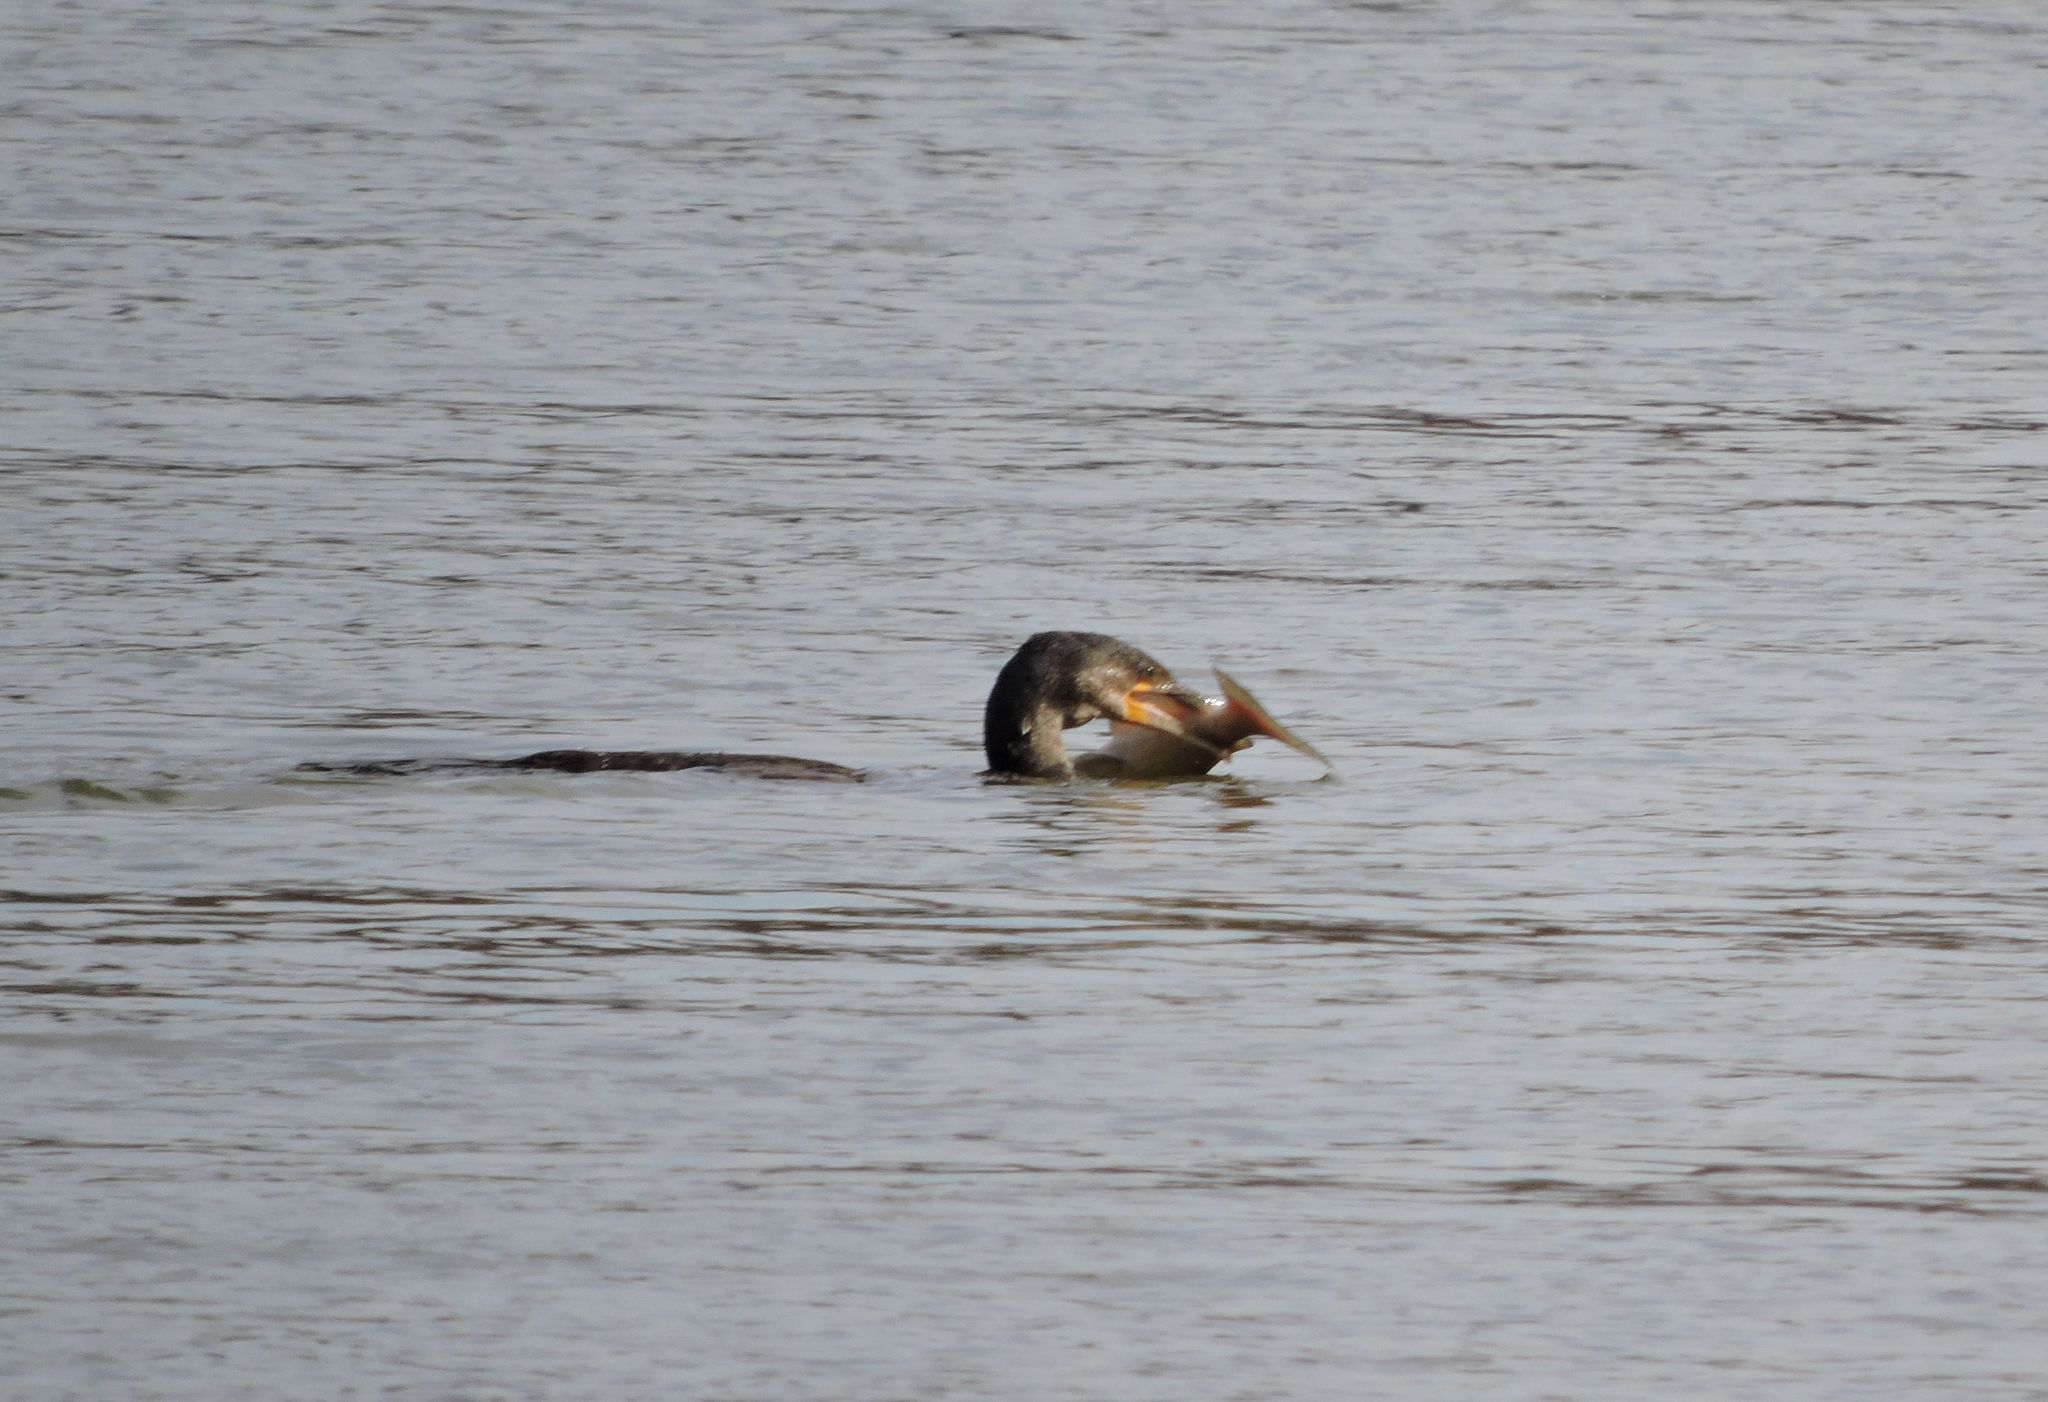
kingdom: Animalia
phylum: Chordata
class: Aves
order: Suliformes
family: Phalacrocoracidae
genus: Phalacrocorax
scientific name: Phalacrocorax auritus
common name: Double-crested cormorant
